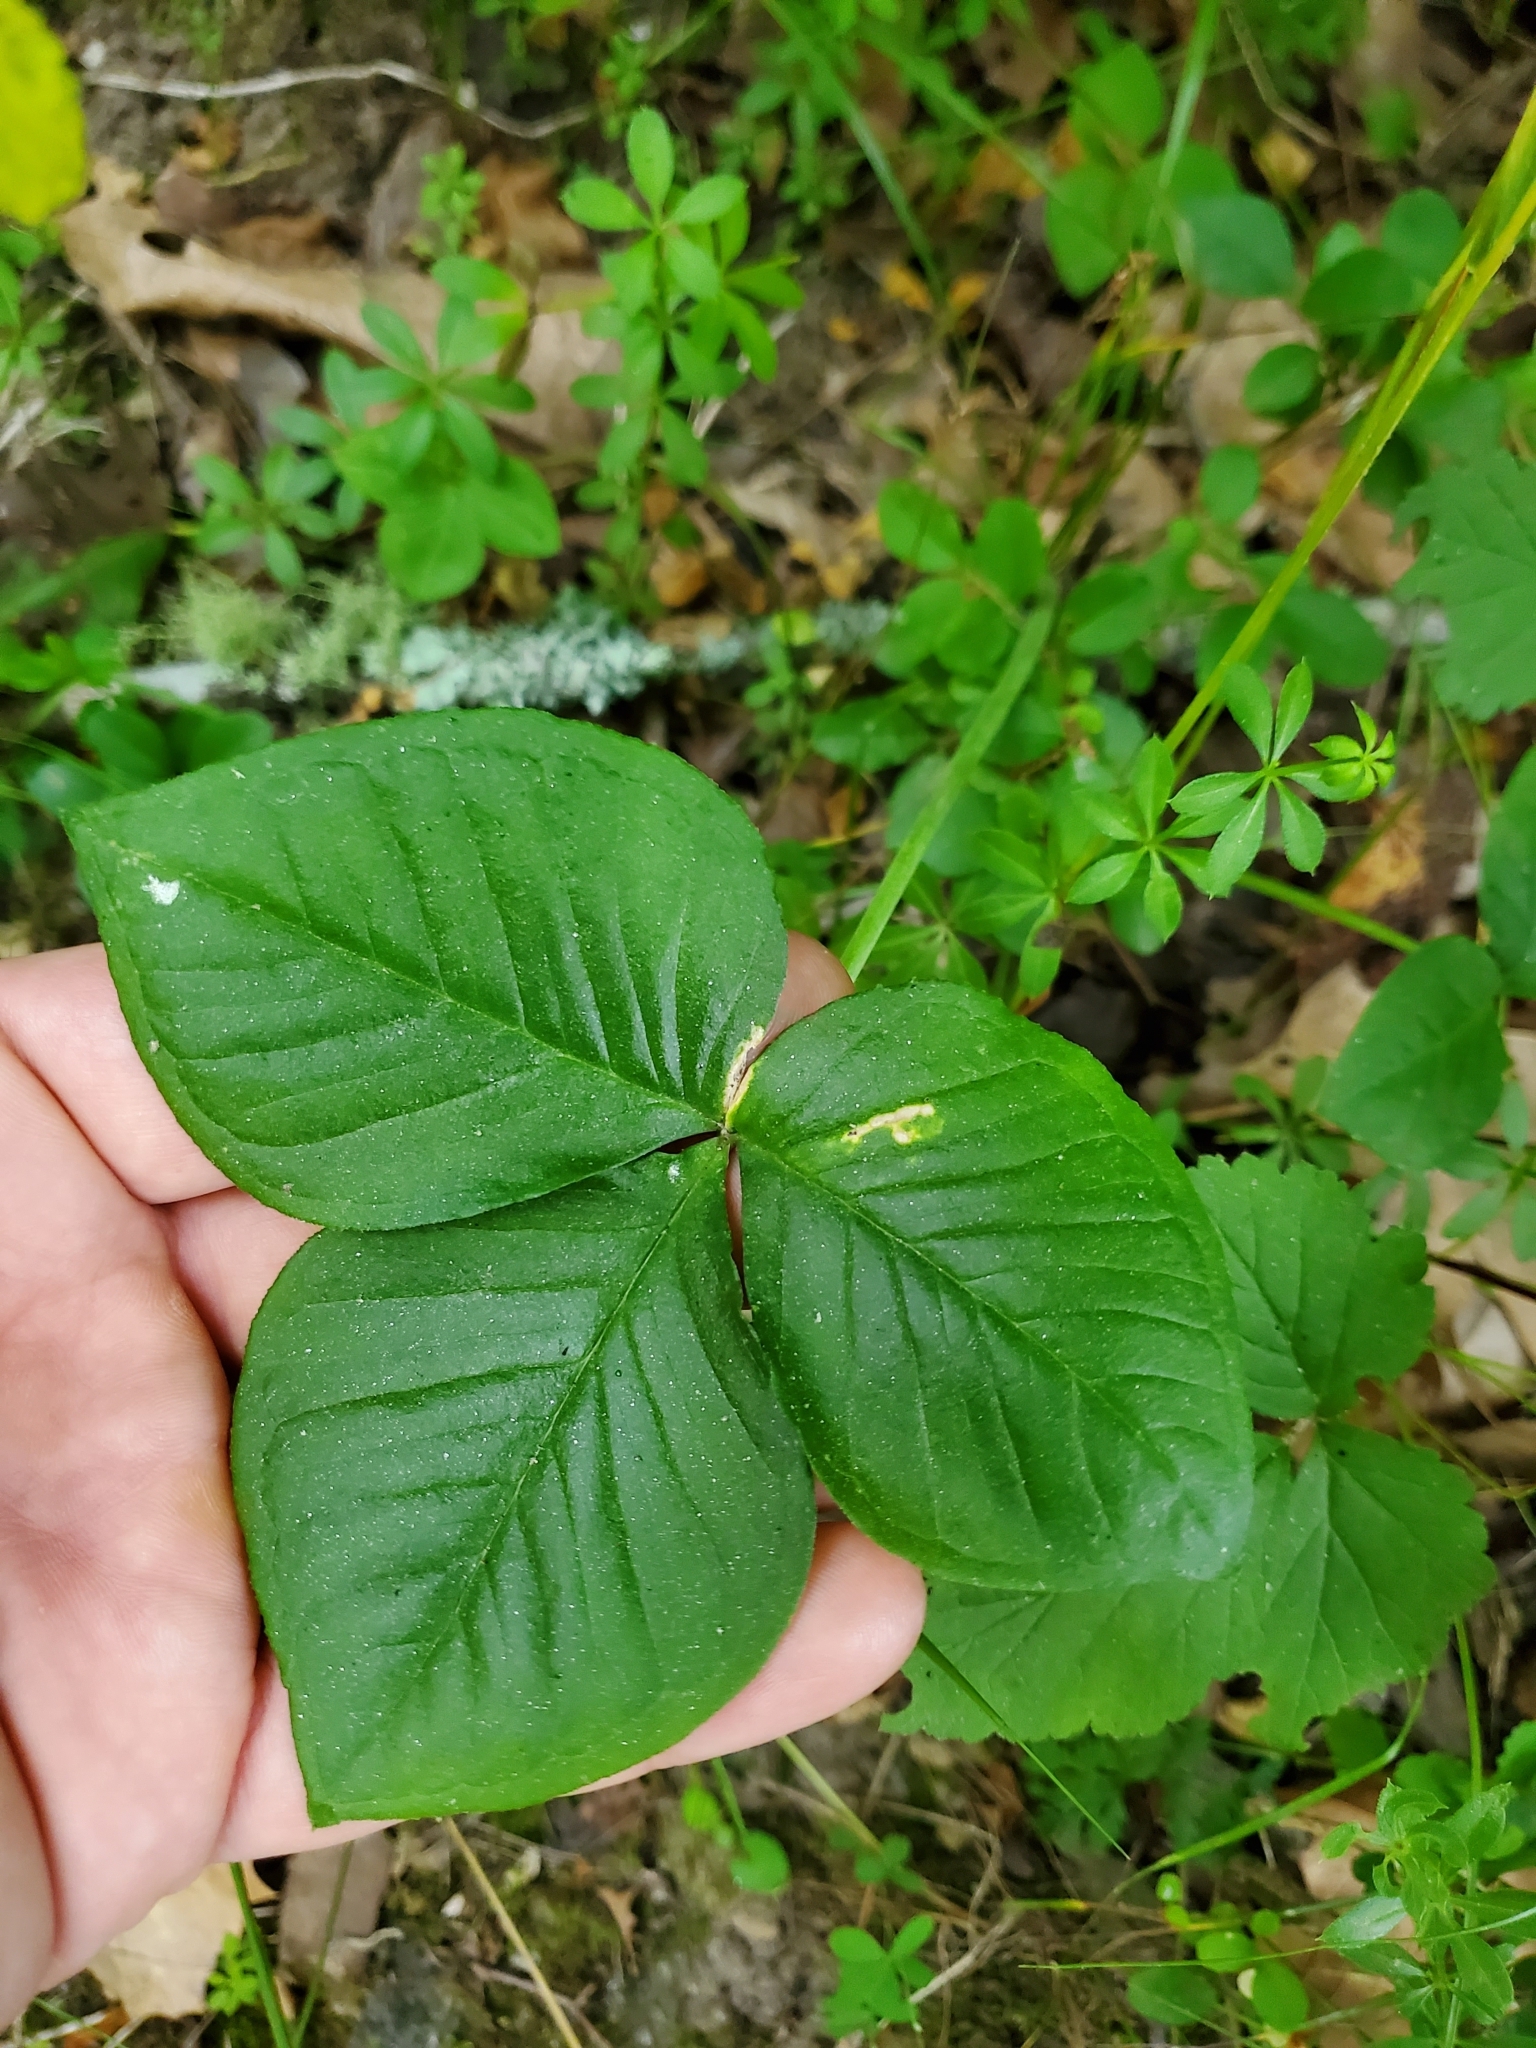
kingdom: Plantae
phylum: Tracheophyta
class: Liliopsida
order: Alismatales
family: Araceae
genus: Arisaema
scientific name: Arisaema triphyllum
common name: Jack-in-the-pulpit
